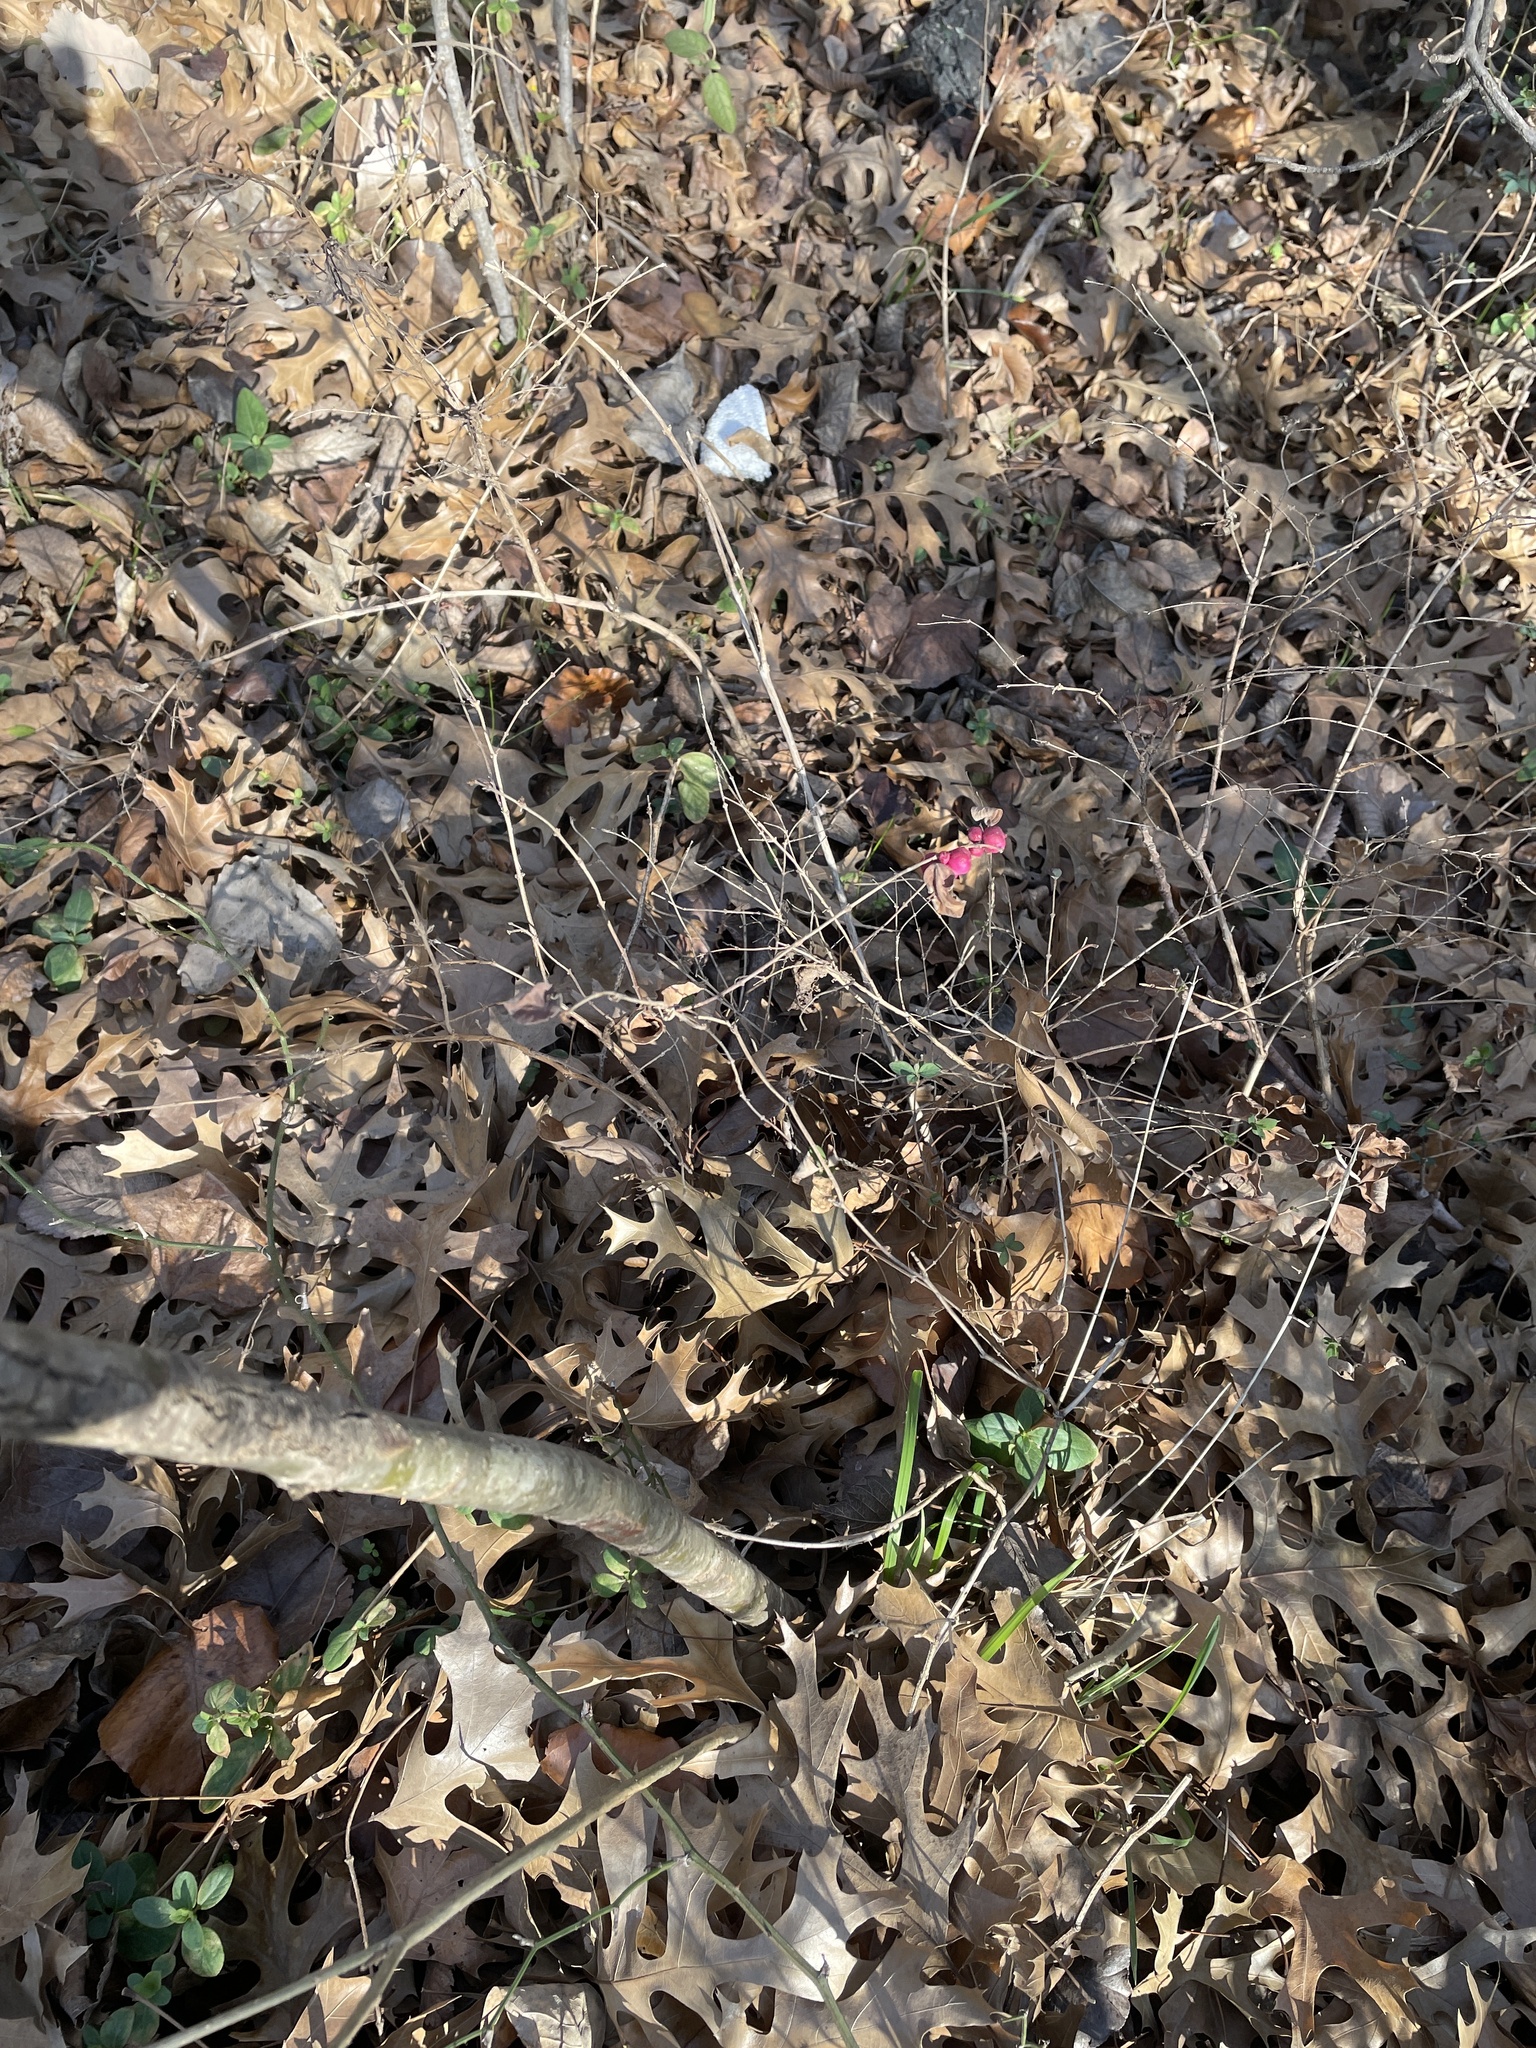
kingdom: Plantae
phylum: Tracheophyta
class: Magnoliopsida
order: Dipsacales
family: Caprifoliaceae
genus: Symphoricarpos
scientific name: Symphoricarpos orbiculatus
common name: Coralberry
